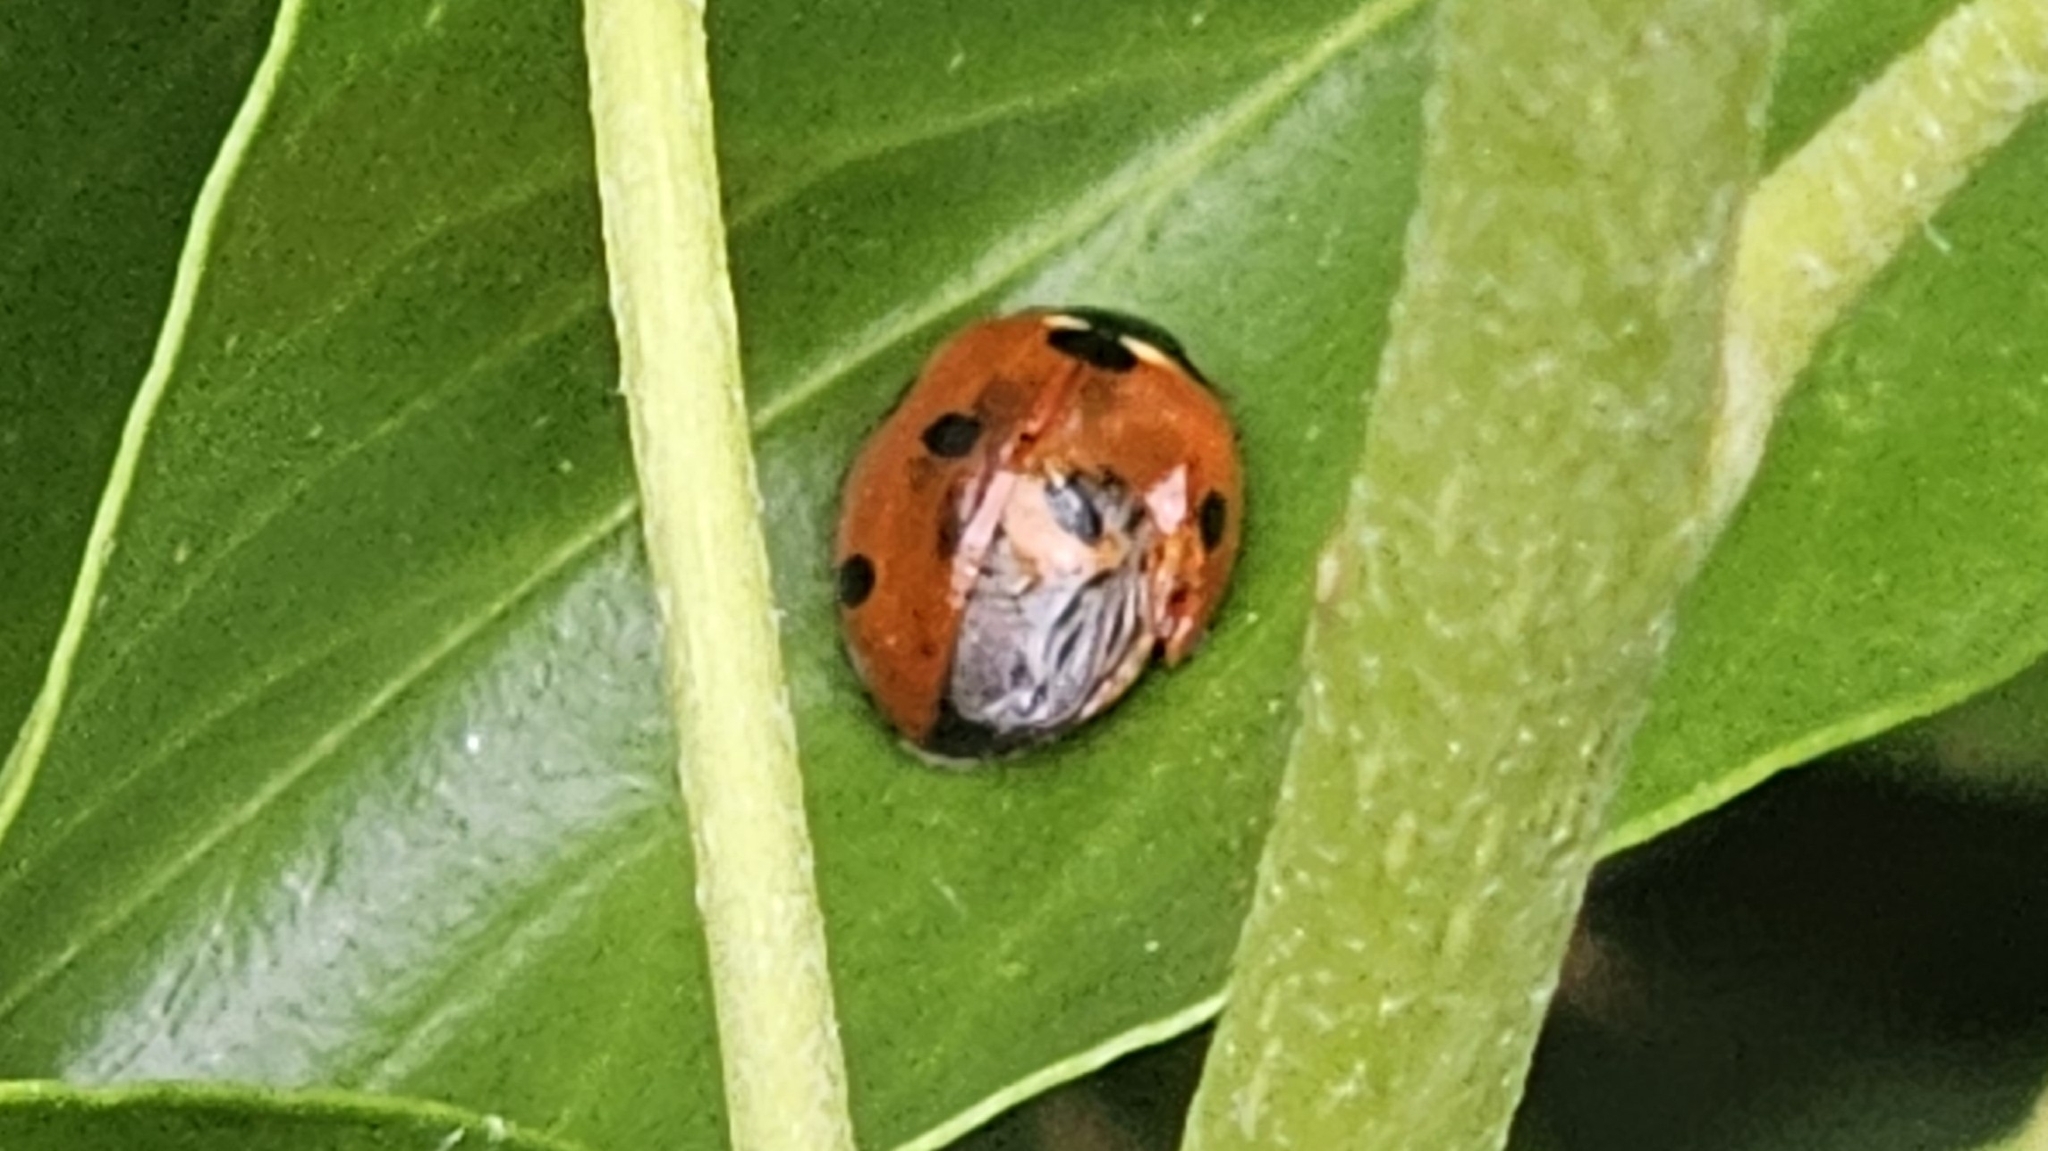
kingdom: Animalia
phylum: Arthropoda
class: Insecta
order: Coleoptera
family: Coccinellidae
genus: Coccinella
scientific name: Coccinella septempunctata
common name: Sevenspotted lady beetle
